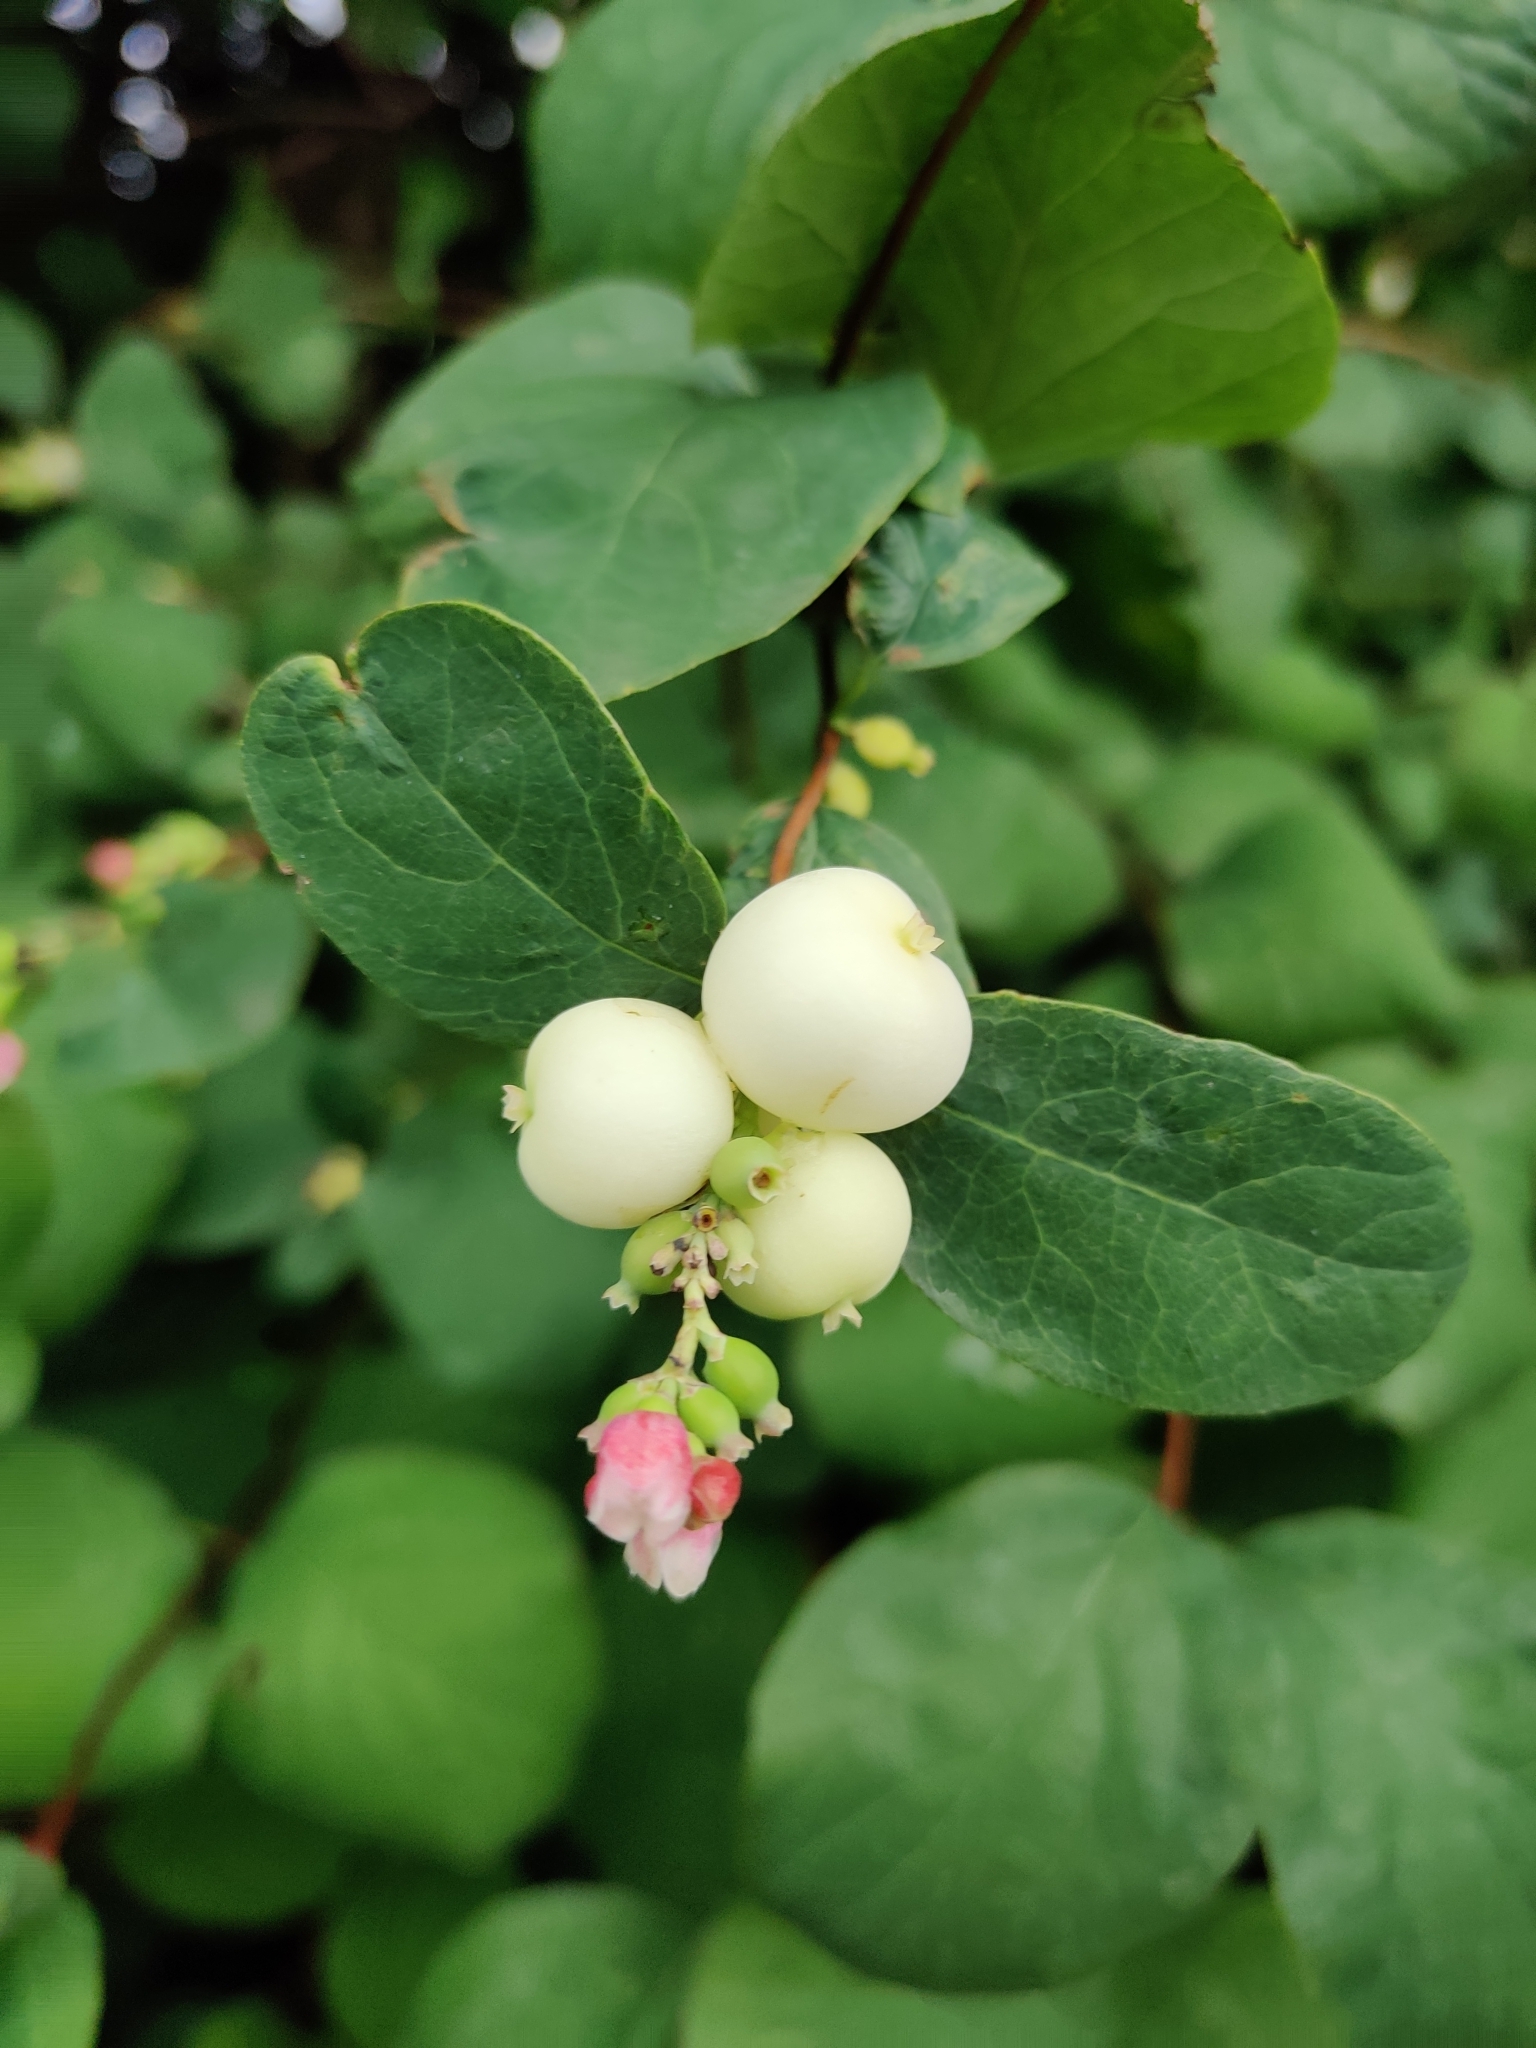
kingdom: Plantae
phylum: Tracheophyta
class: Magnoliopsida
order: Dipsacales
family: Caprifoliaceae
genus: Symphoricarpos
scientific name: Symphoricarpos albus
